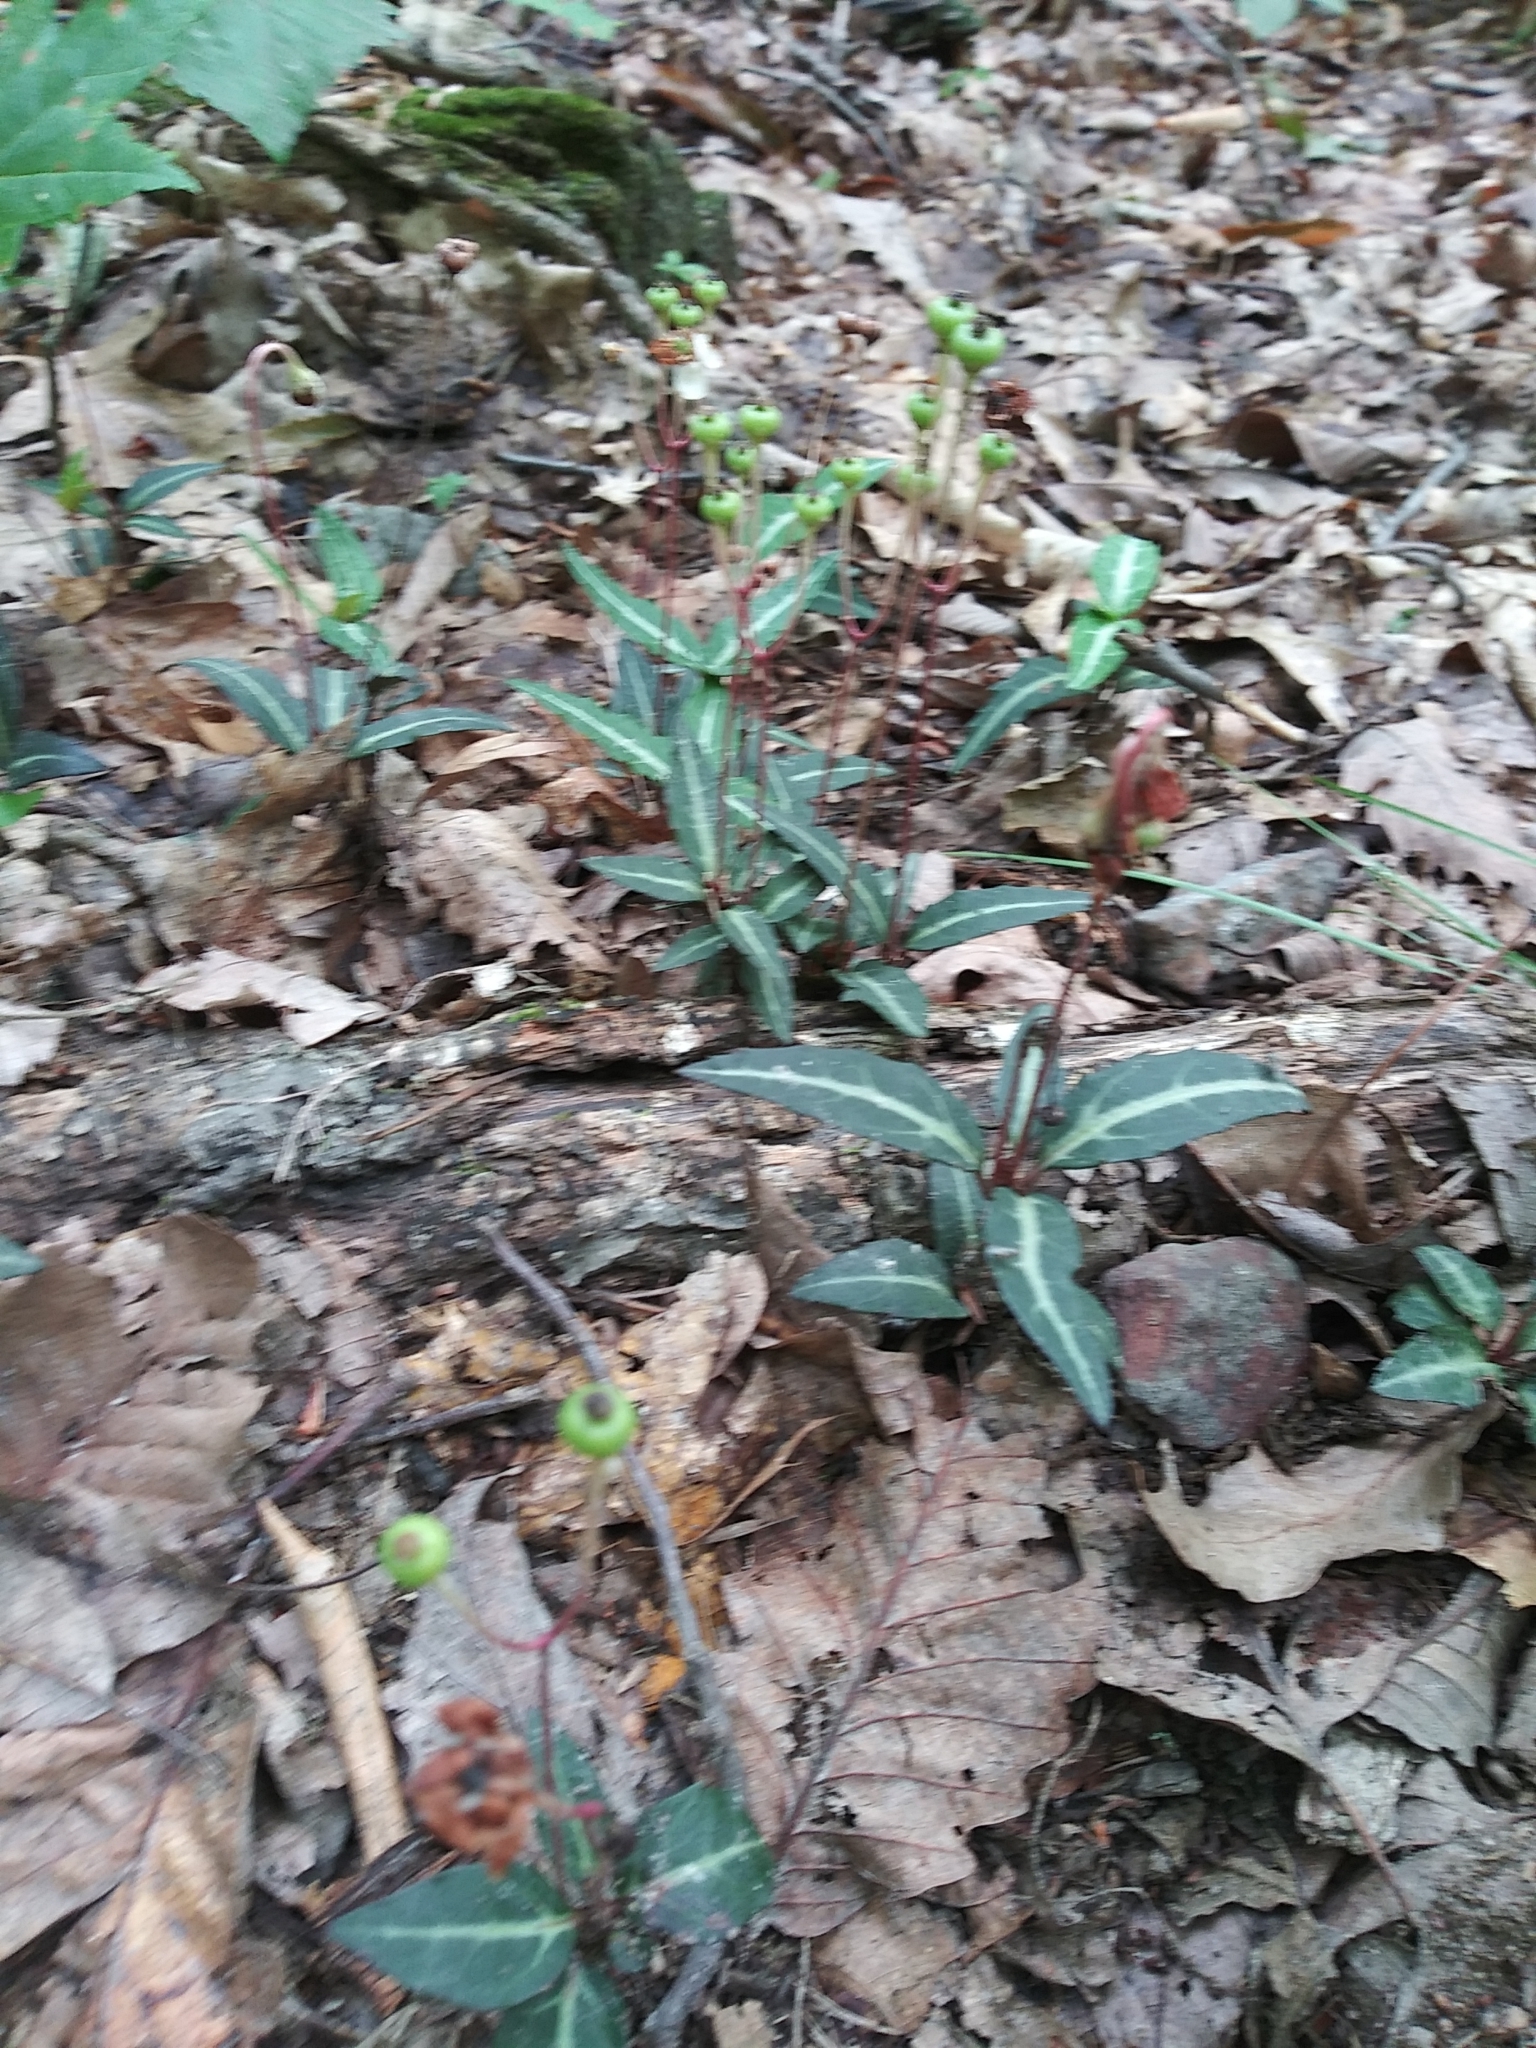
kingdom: Plantae
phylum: Tracheophyta
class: Magnoliopsida
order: Ericales
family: Ericaceae
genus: Chimaphila
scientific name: Chimaphila maculata
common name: Spotted pipsissewa
